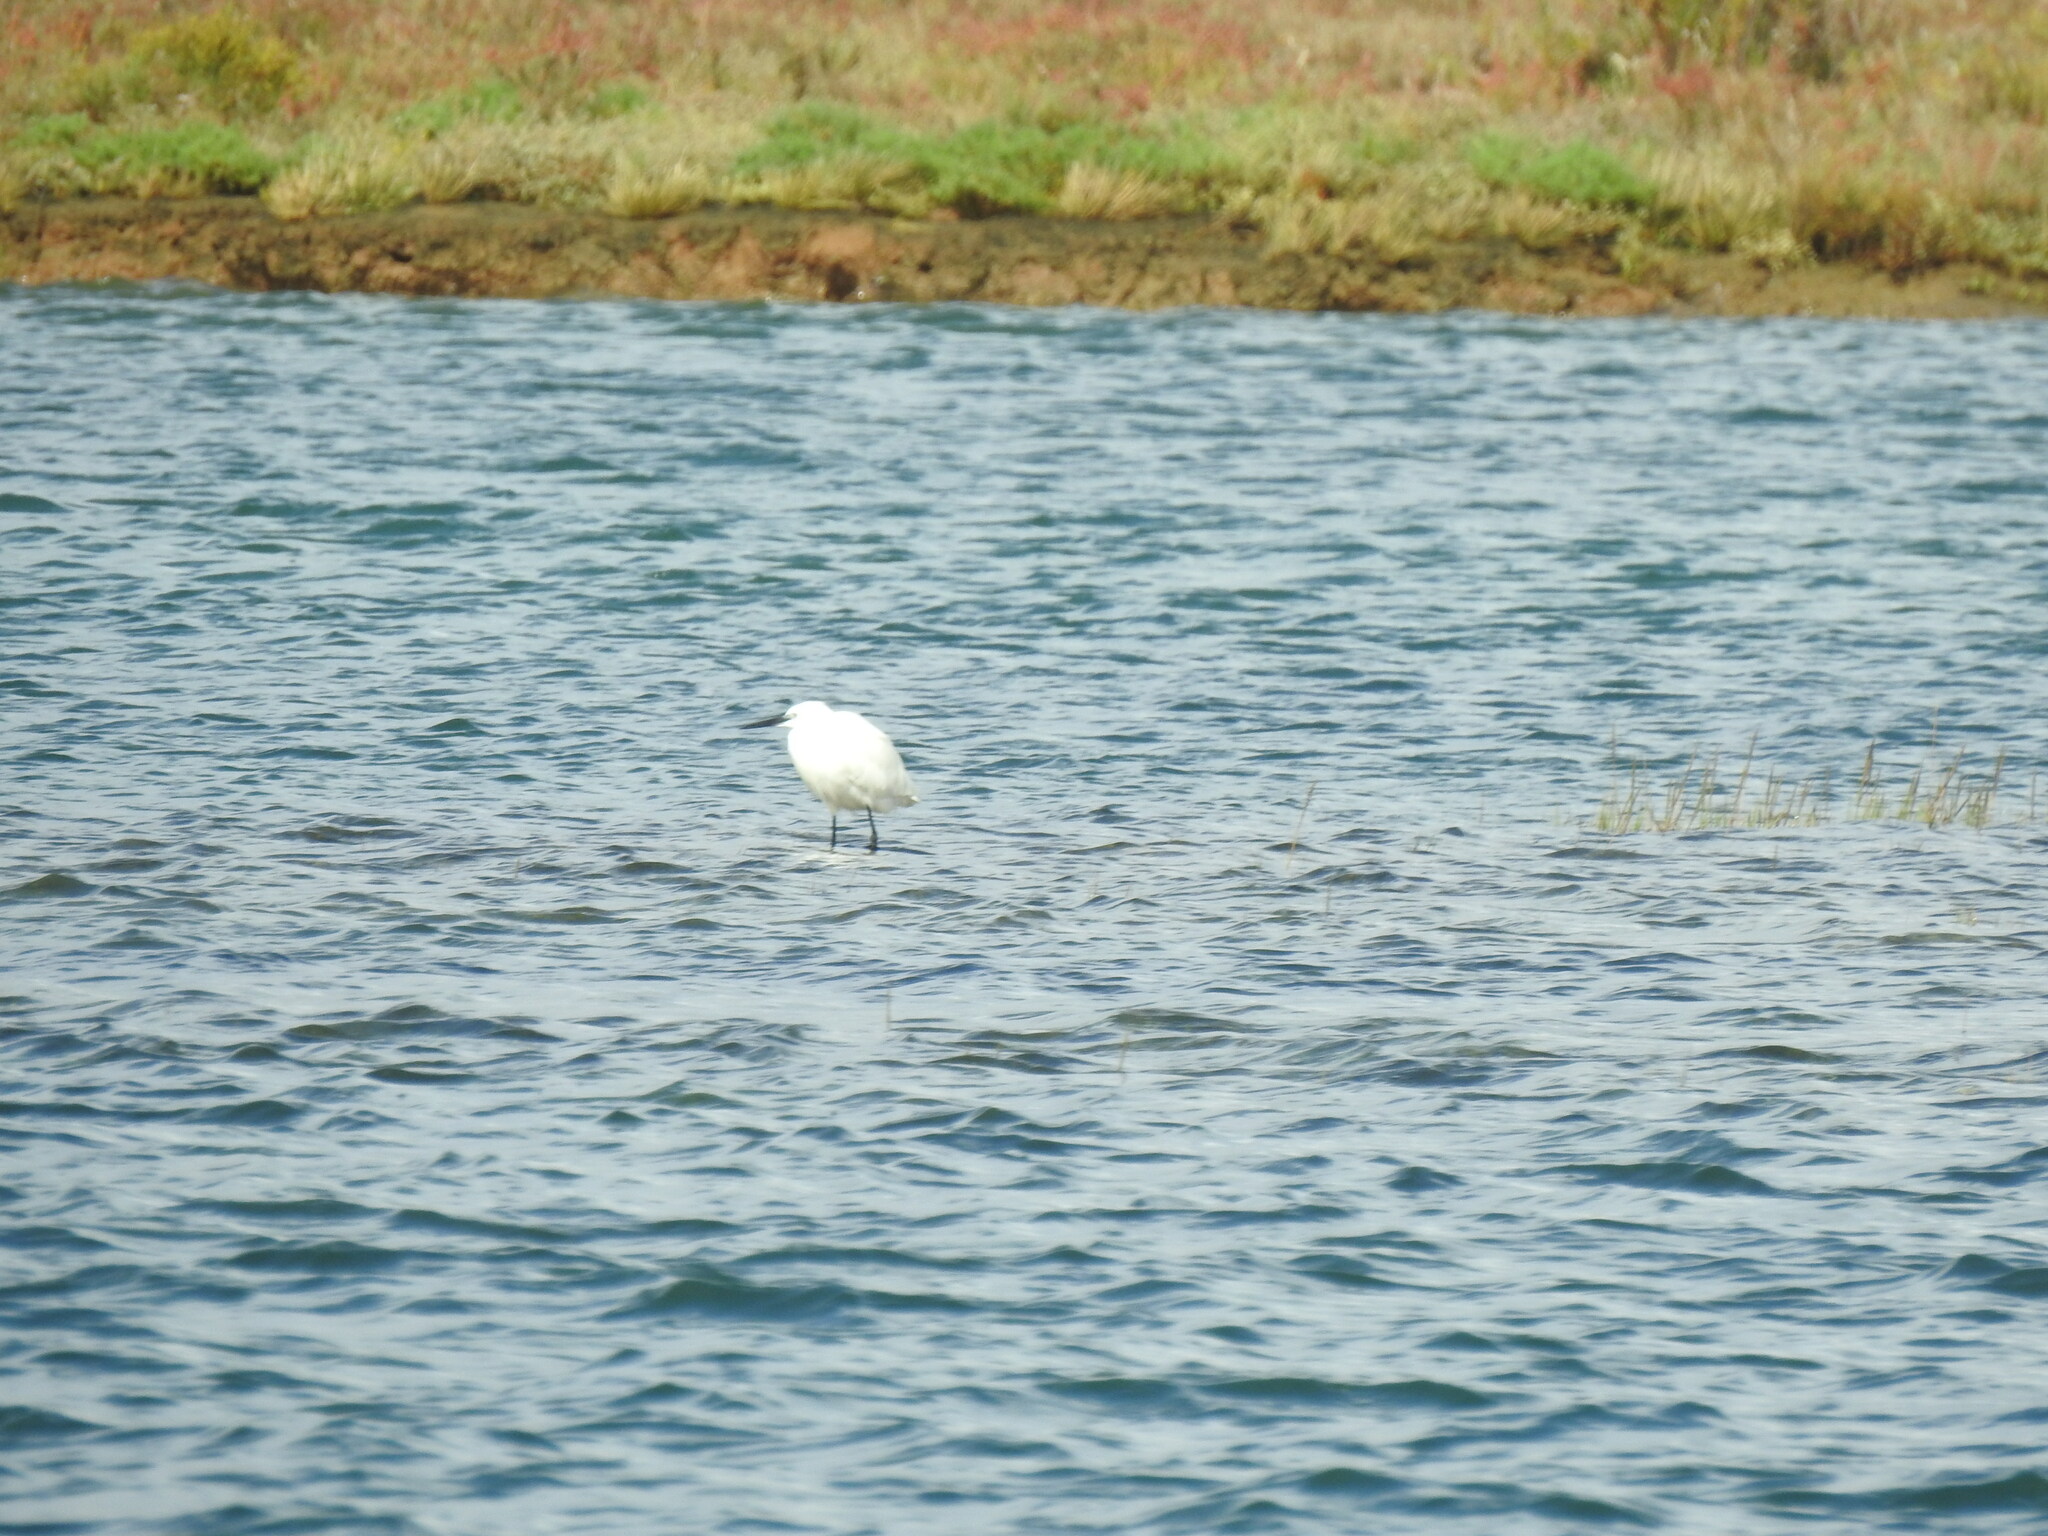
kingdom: Animalia
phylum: Chordata
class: Aves
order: Pelecaniformes
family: Ardeidae
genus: Egretta
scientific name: Egretta garzetta
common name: Little egret
